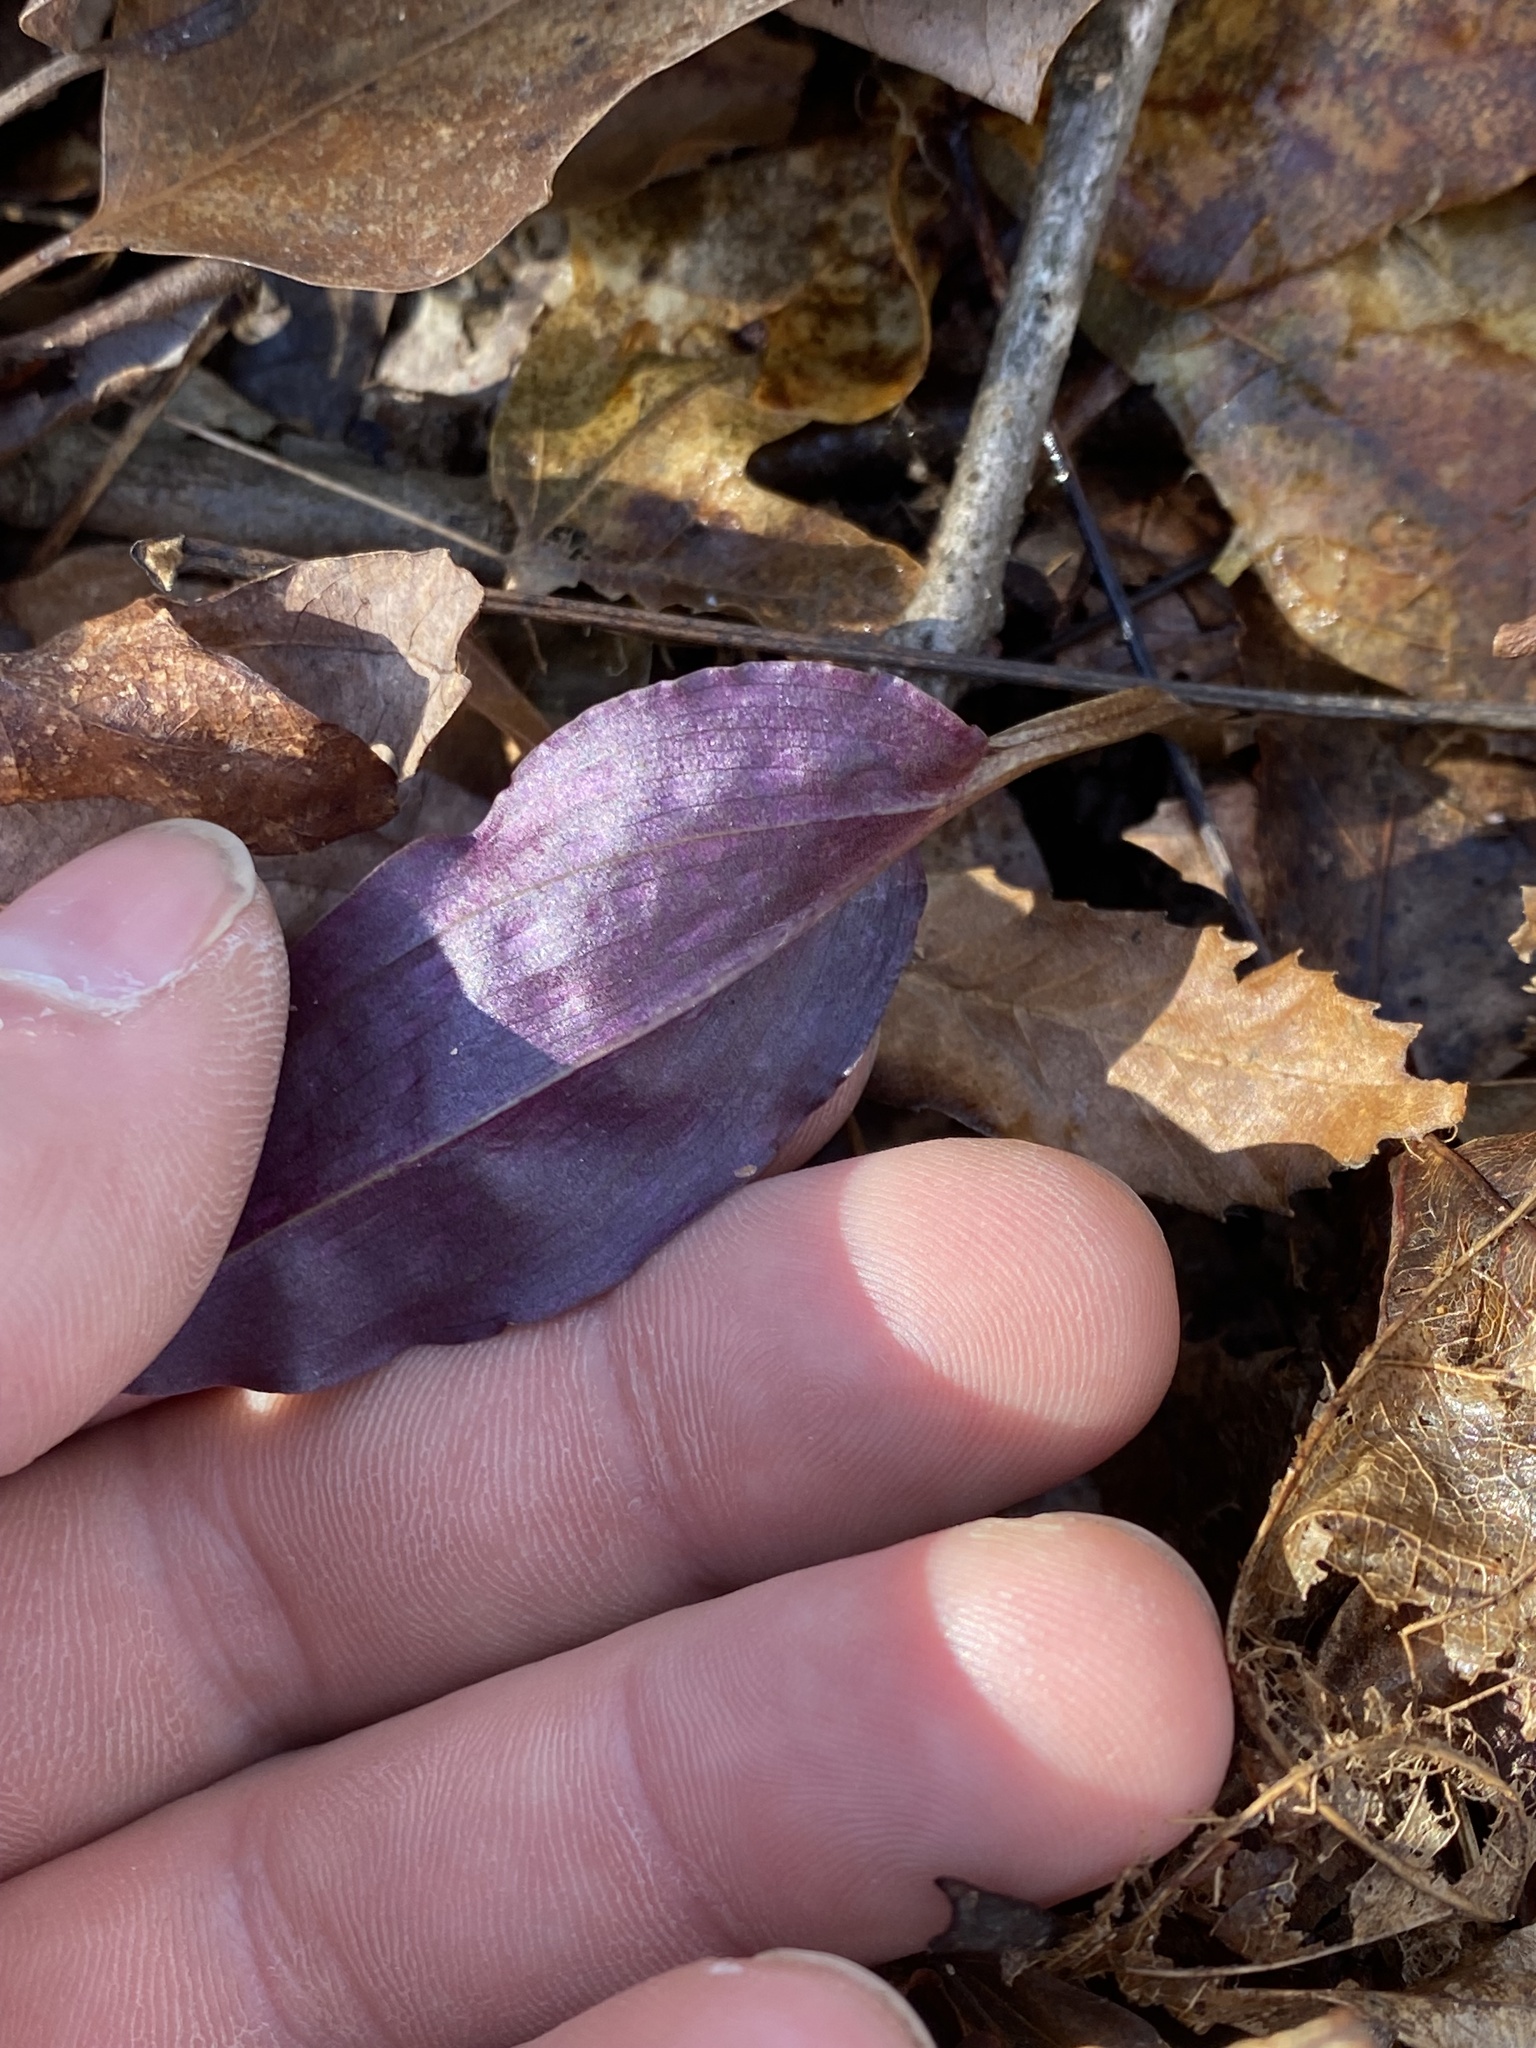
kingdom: Plantae
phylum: Tracheophyta
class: Liliopsida
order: Asparagales
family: Orchidaceae
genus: Tipularia
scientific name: Tipularia discolor
